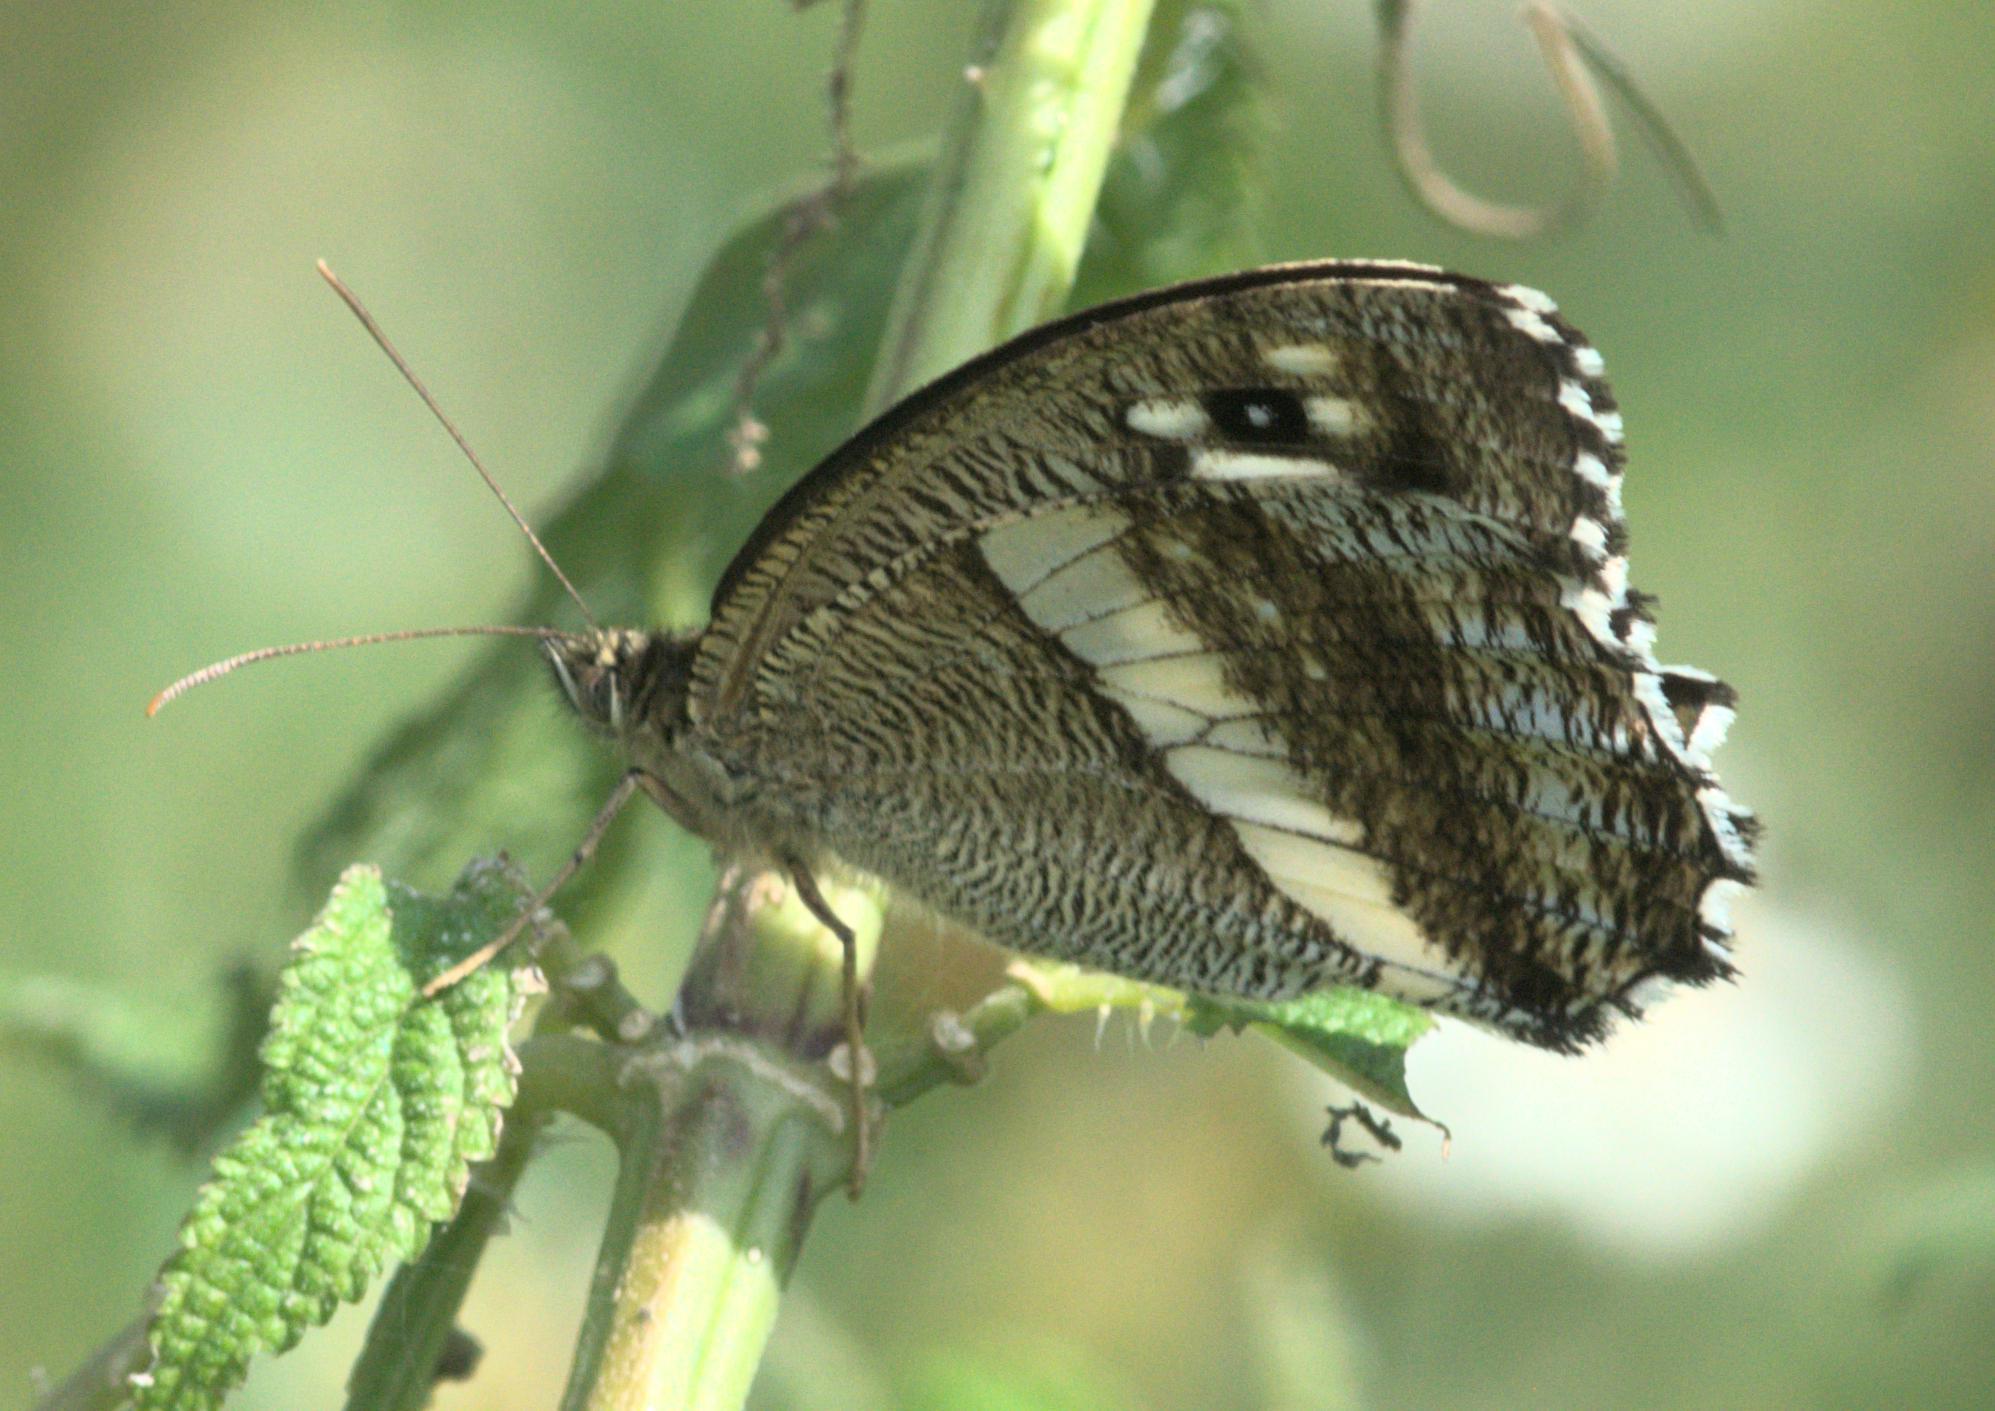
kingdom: Animalia
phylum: Arthropoda
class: Insecta
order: Lepidoptera
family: Nymphalidae
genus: Satyrus
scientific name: Satyrus
